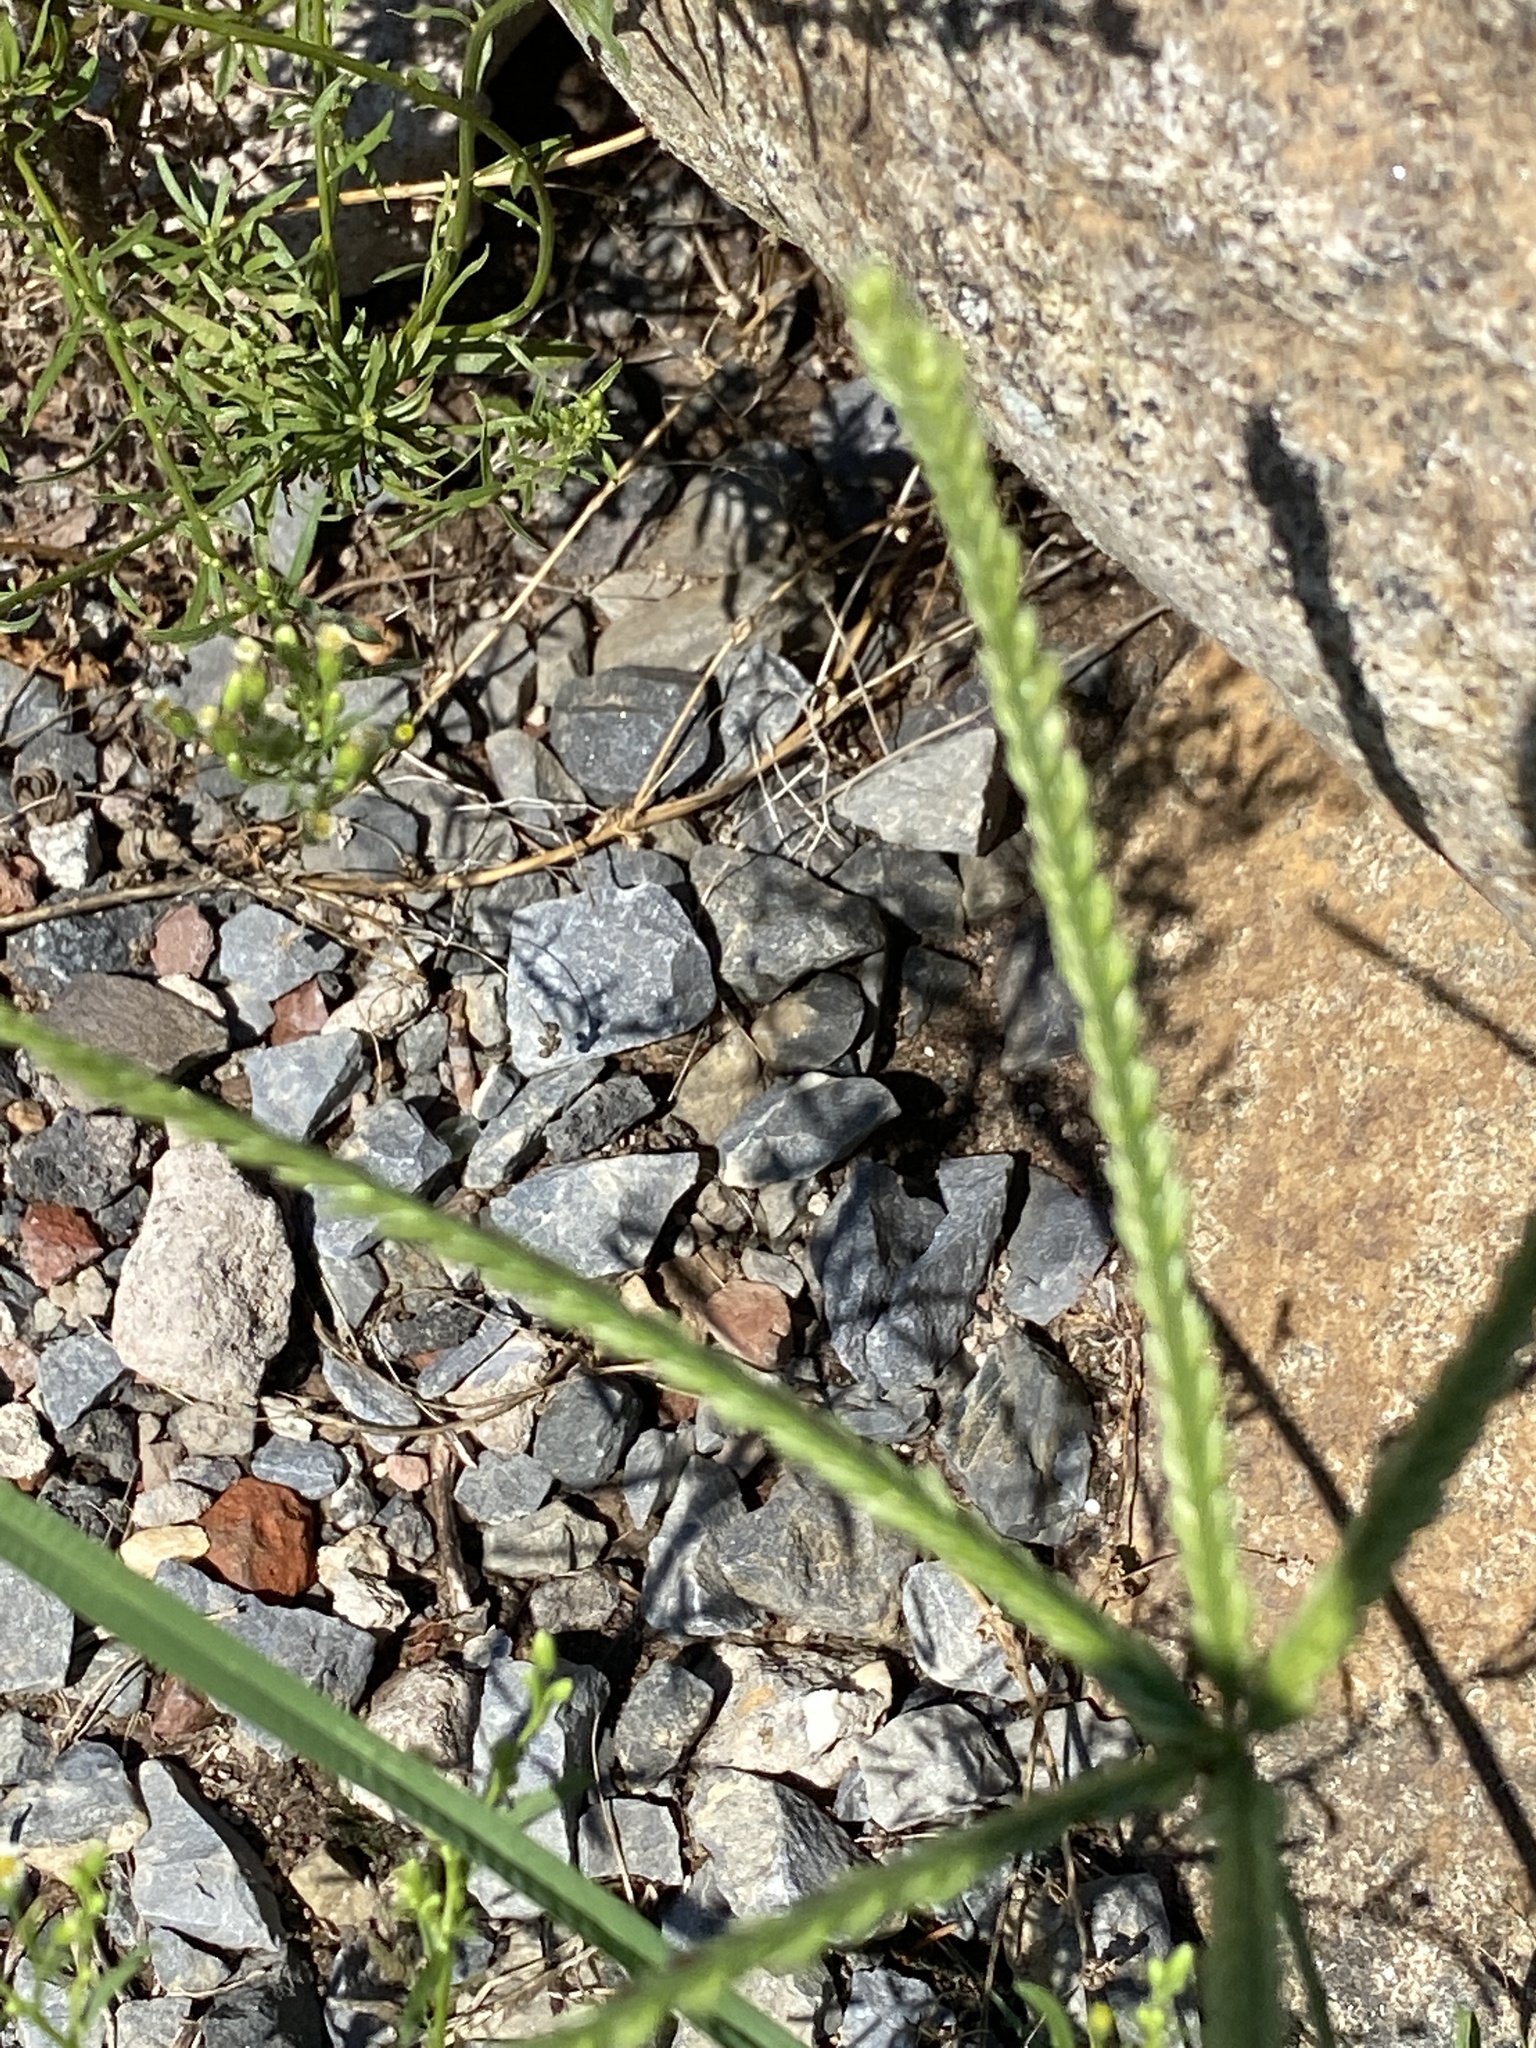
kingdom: Plantae
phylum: Tracheophyta
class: Liliopsida
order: Poales
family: Poaceae
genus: Eleusine
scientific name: Eleusine indica
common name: Yard-grass
